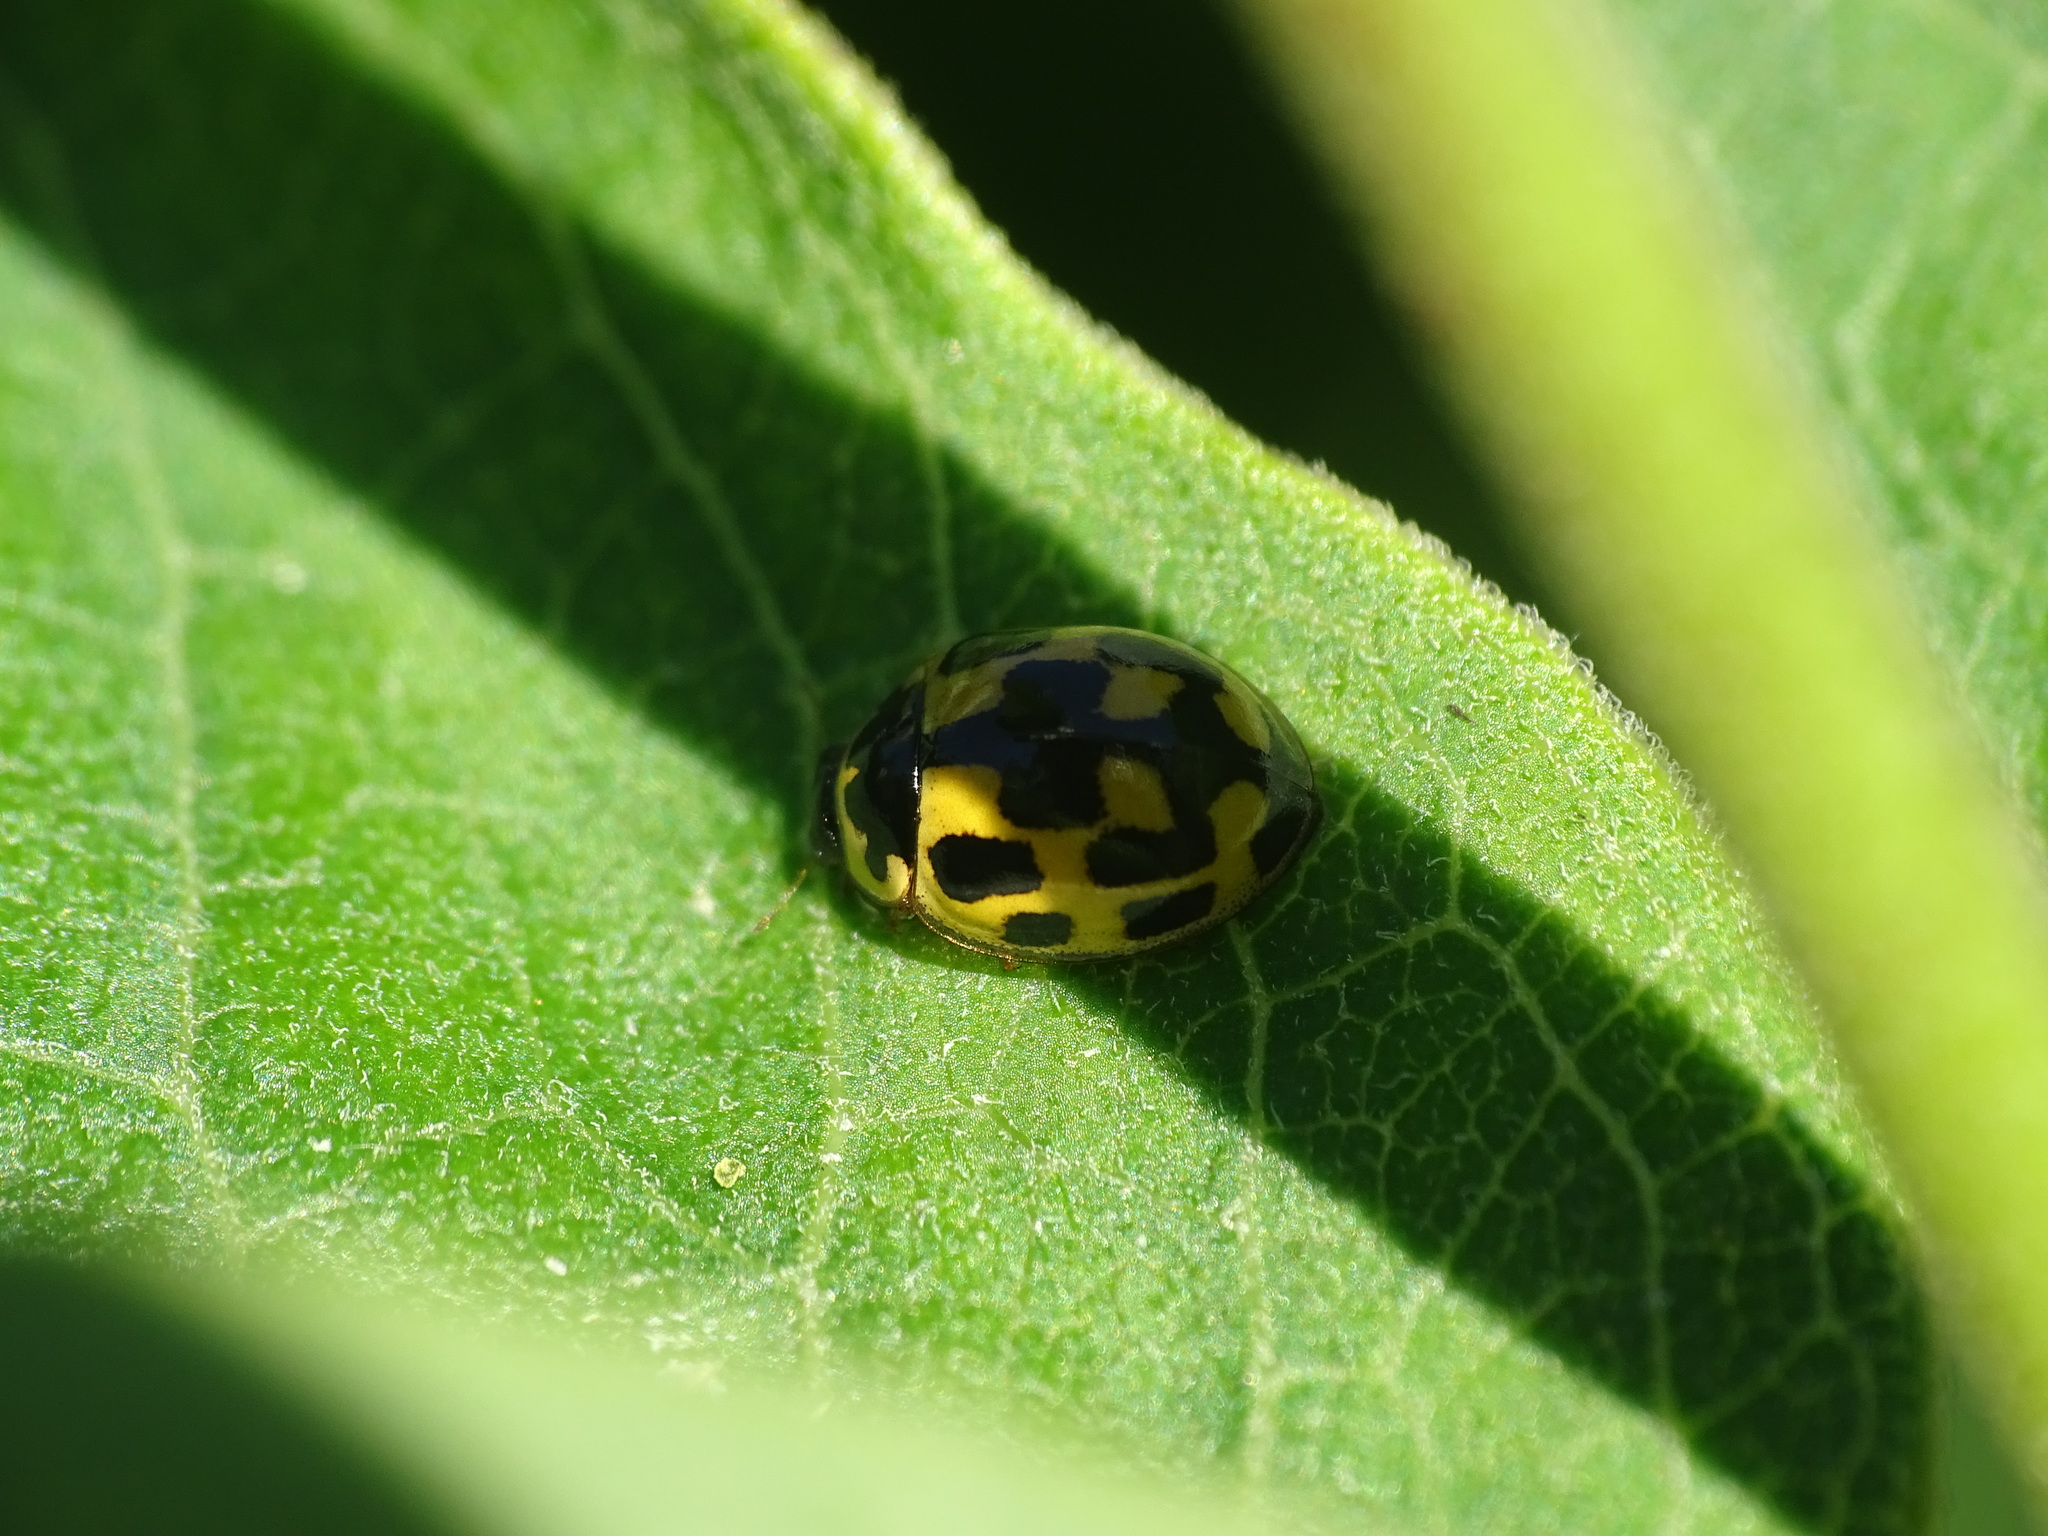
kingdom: Animalia
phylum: Arthropoda
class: Insecta
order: Coleoptera
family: Coccinellidae
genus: Propylaea
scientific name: Propylaea quatuordecimpunctata
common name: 14-spotted ladybird beetle
